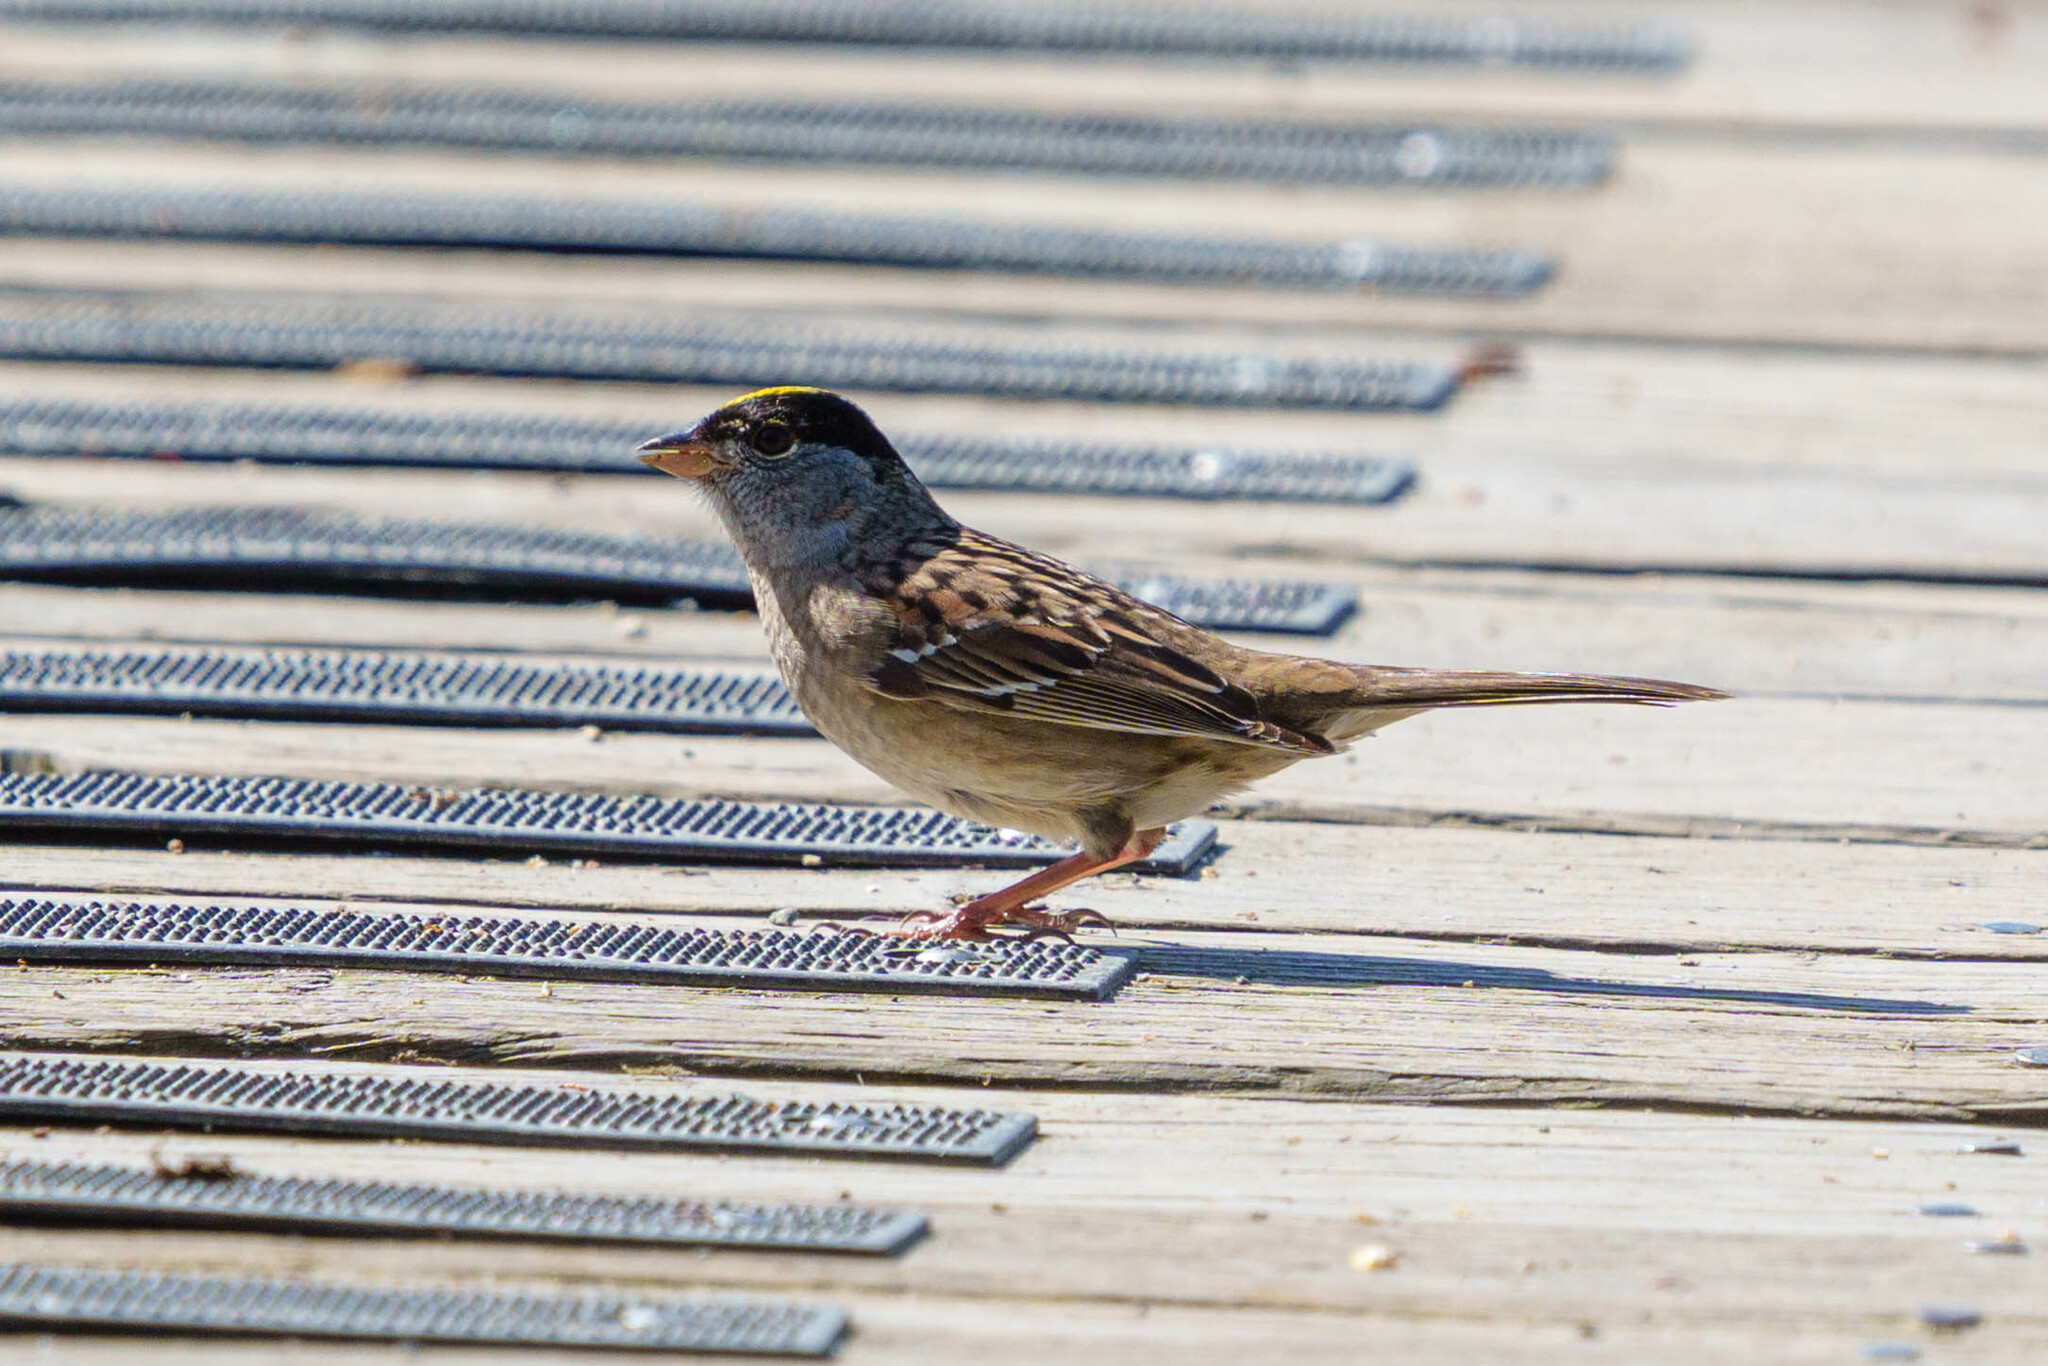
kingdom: Animalia
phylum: Chordata
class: Aves
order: Passeriformes
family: Passerellidae
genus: Zonotrichia
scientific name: Zonotrichia atricapilla
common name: Golden-crowned sparrow
